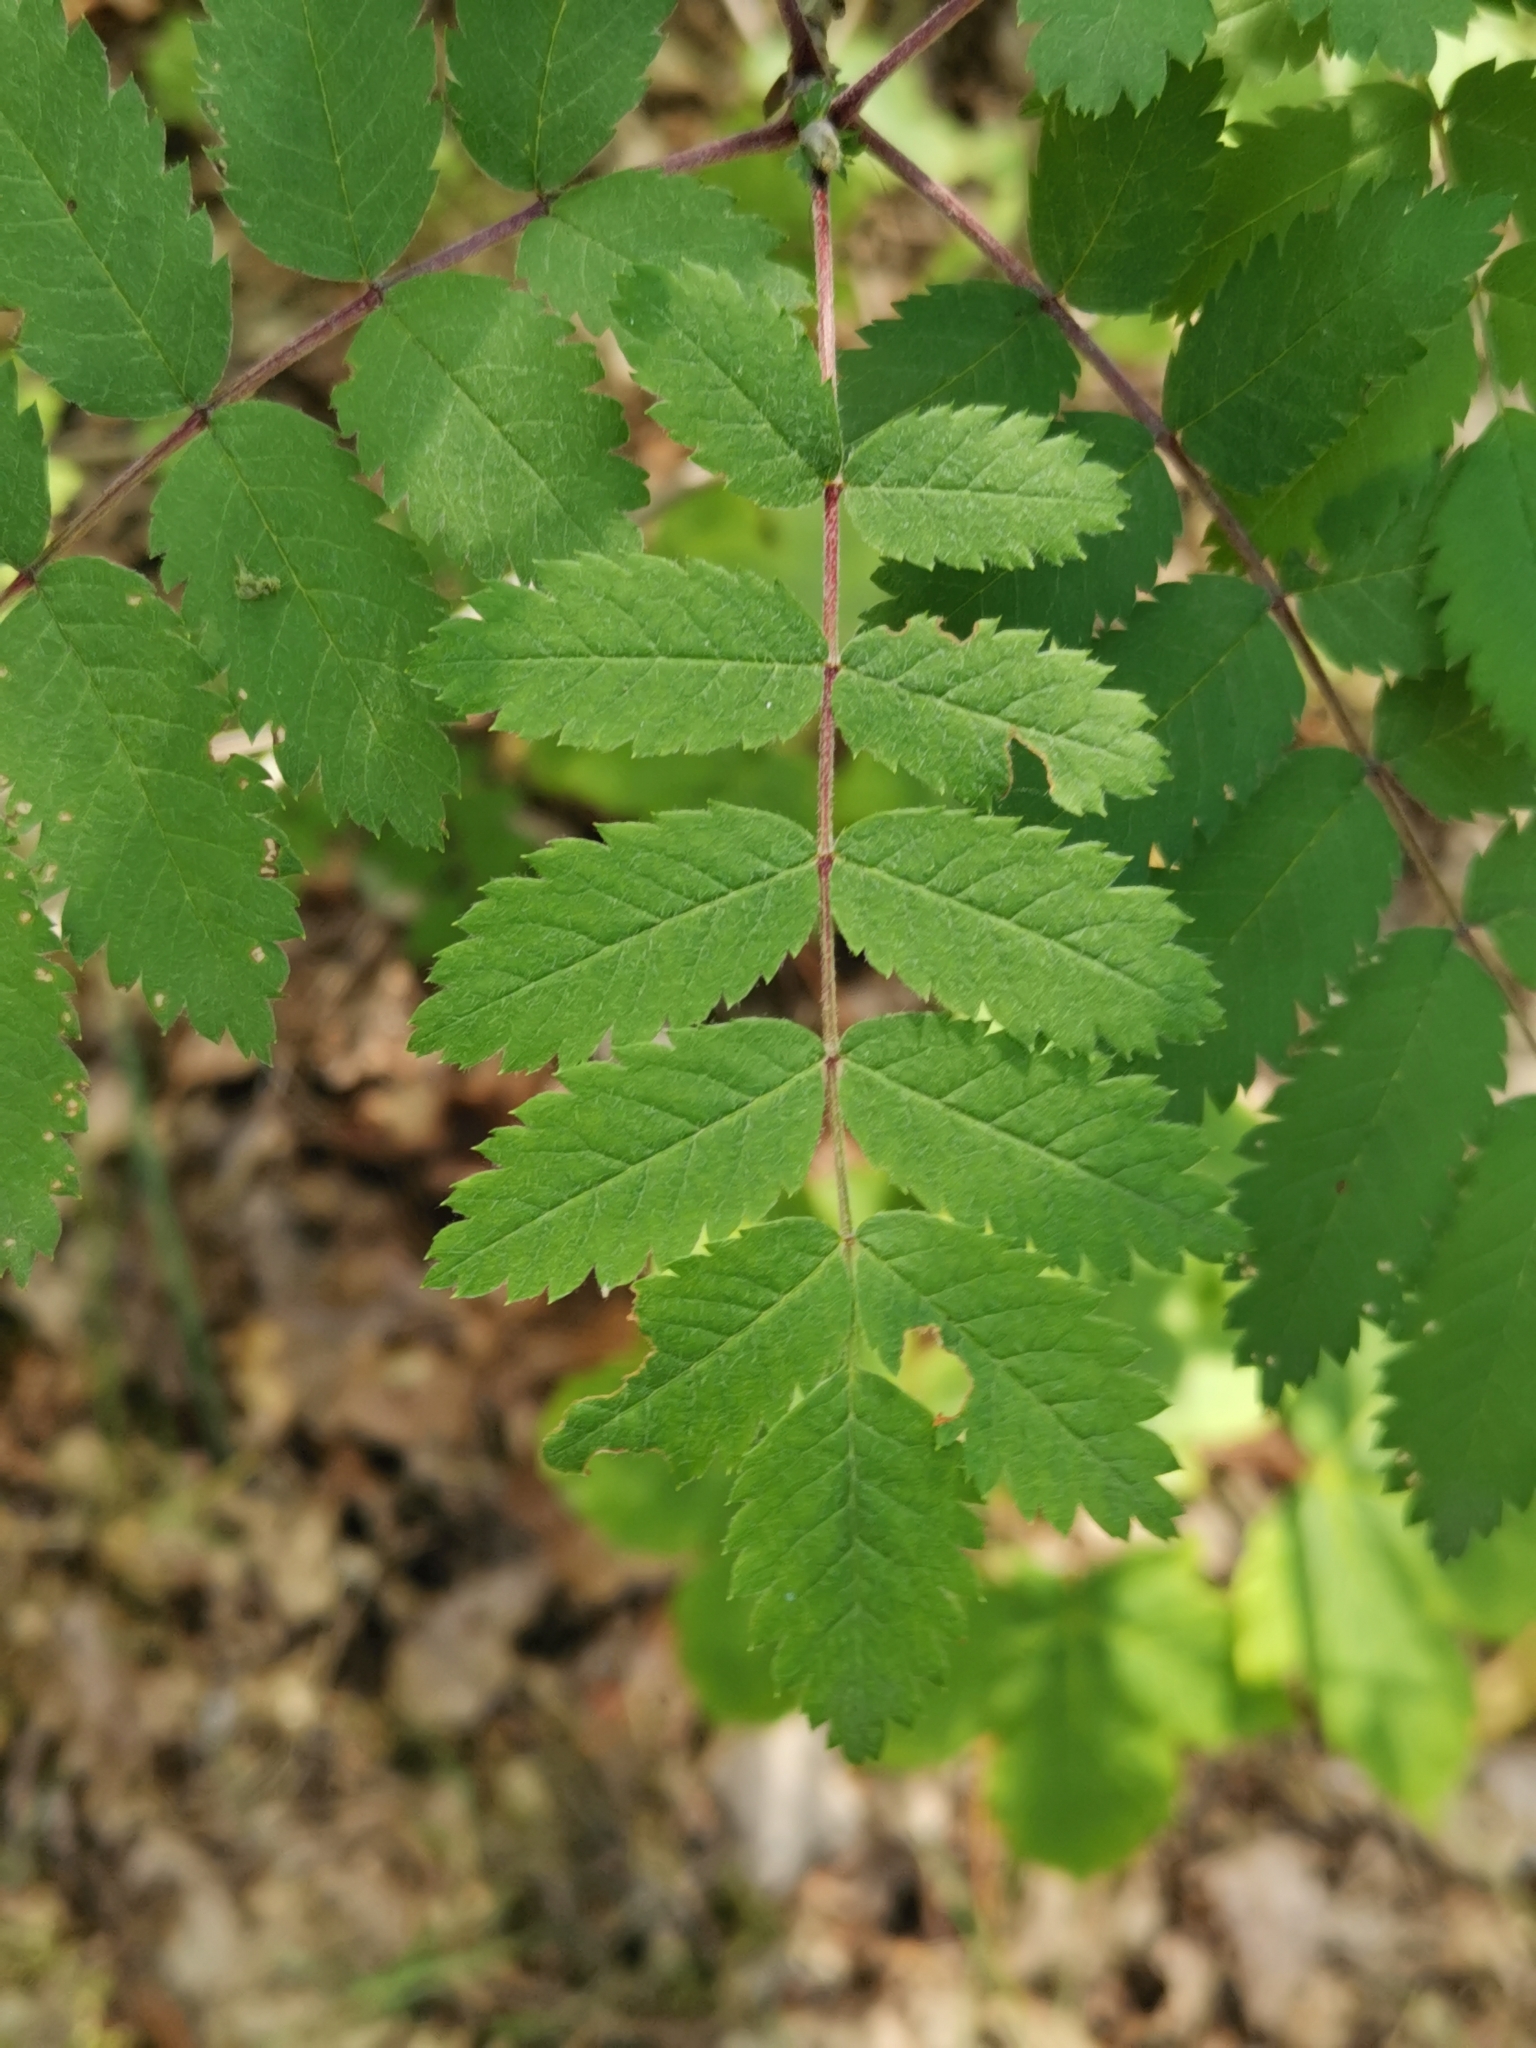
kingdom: Plantae
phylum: Tracheophyta
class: Magnoliopsida
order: Rosales
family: Rosaceae
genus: Sorbus
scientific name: Sorbus aucuparia
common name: Rowan
